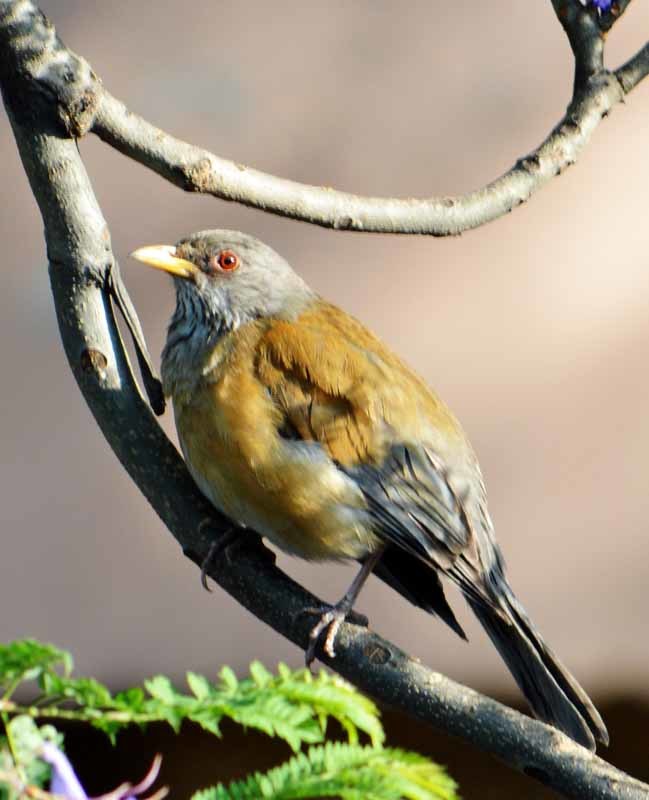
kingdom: Animalia
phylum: Chordata
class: Aves
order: Passeriformes
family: Turdidae
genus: Turdus
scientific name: Turdus rufopalliatus
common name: Rufous-backed robin
